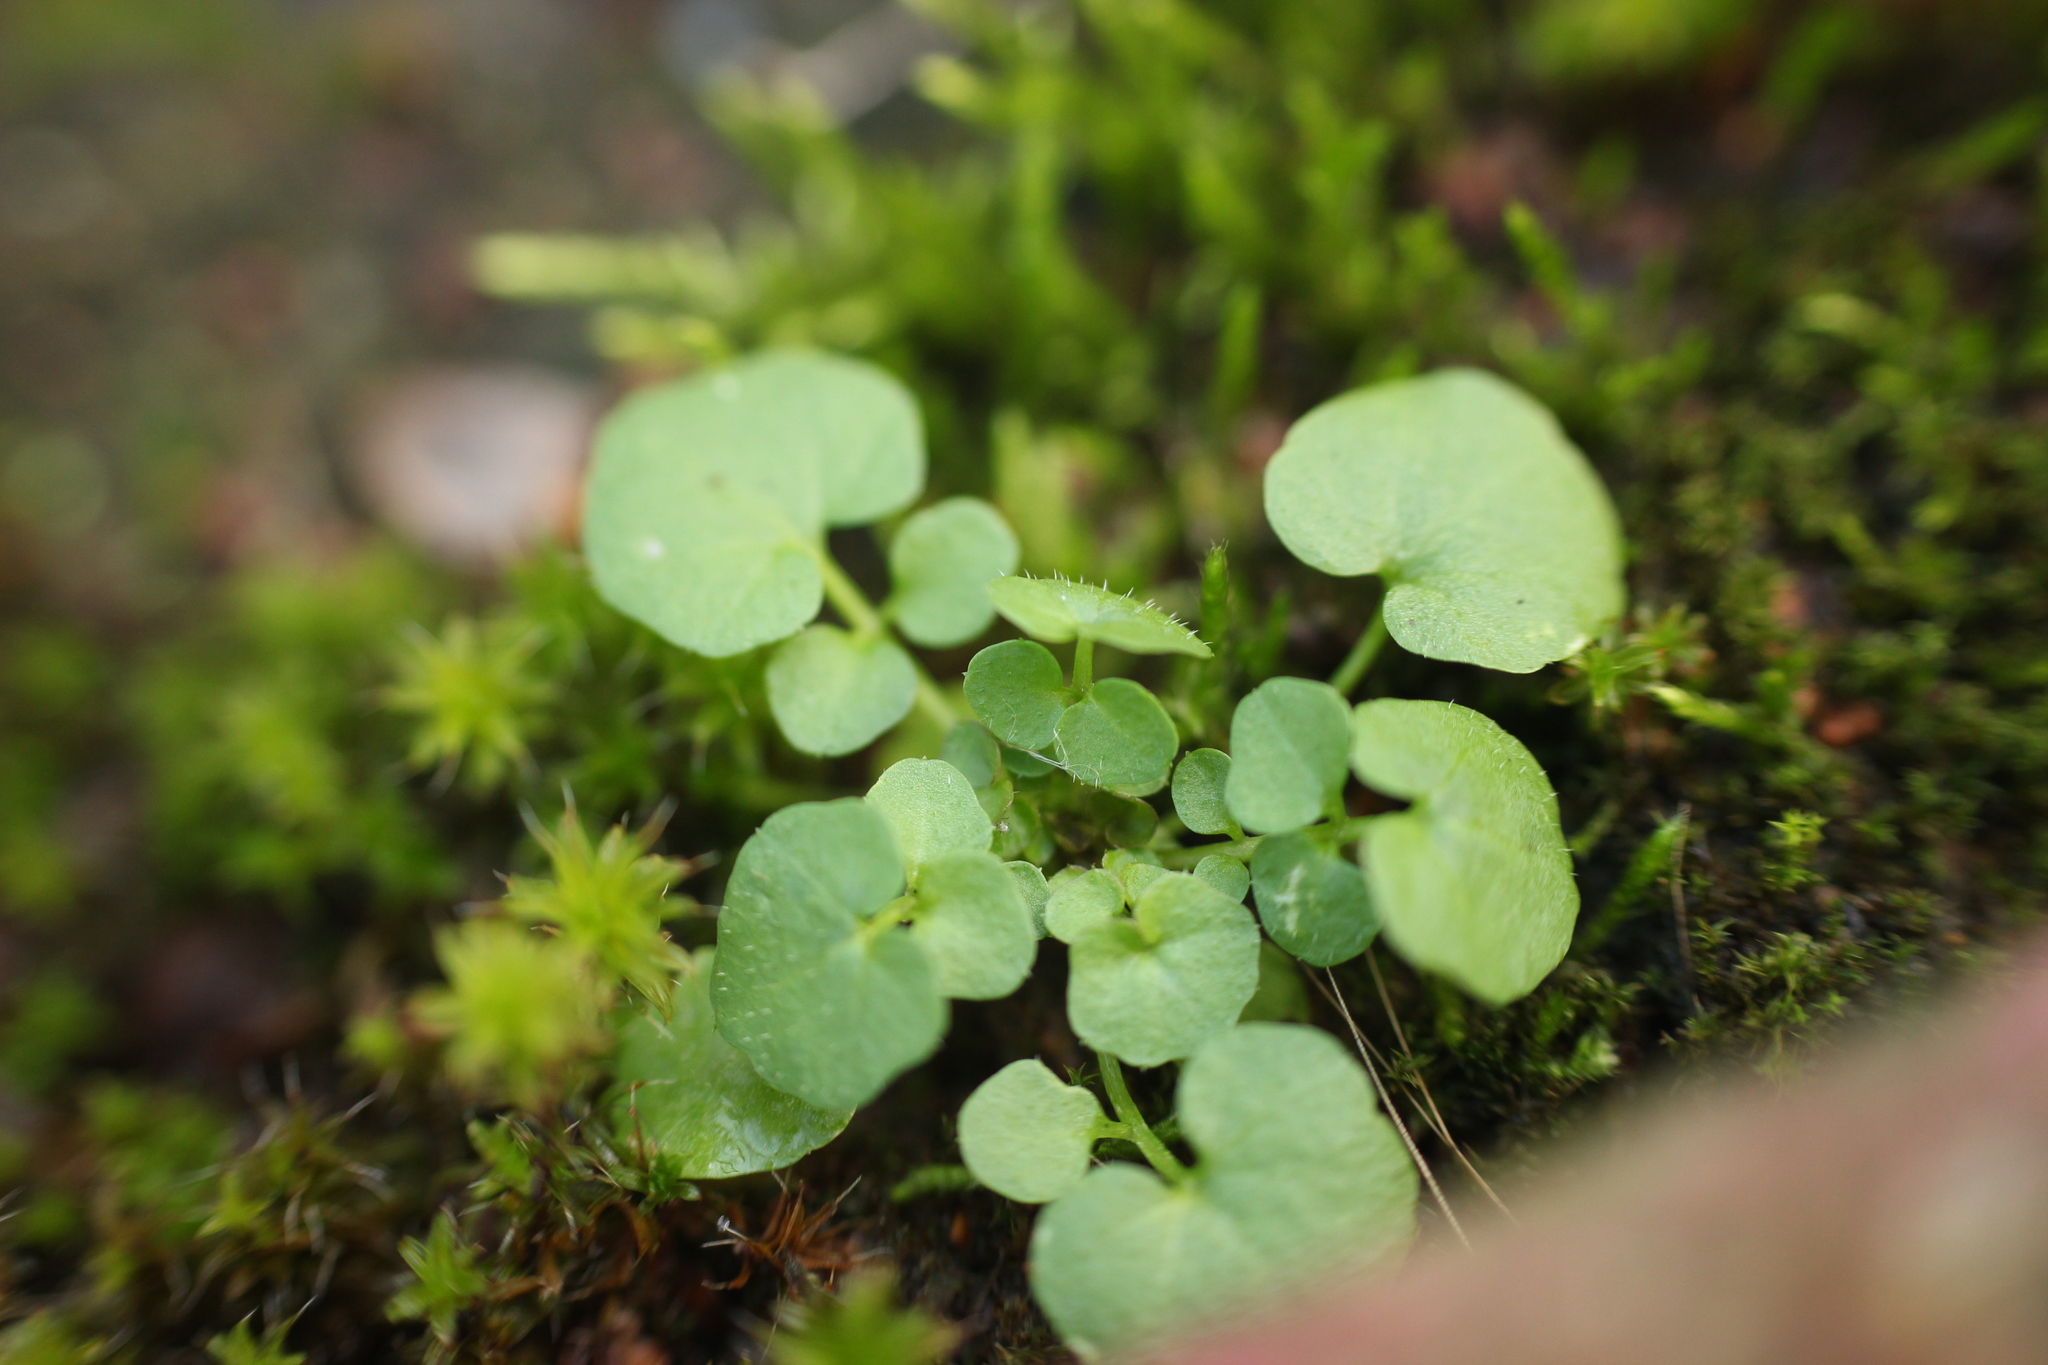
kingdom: Plantae
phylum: Tracheophyta
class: Magnoliopsida
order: Brassicales
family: Brassicaceae
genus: Cardamine
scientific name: Cardamine hirsuta
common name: Hairy bittercress
